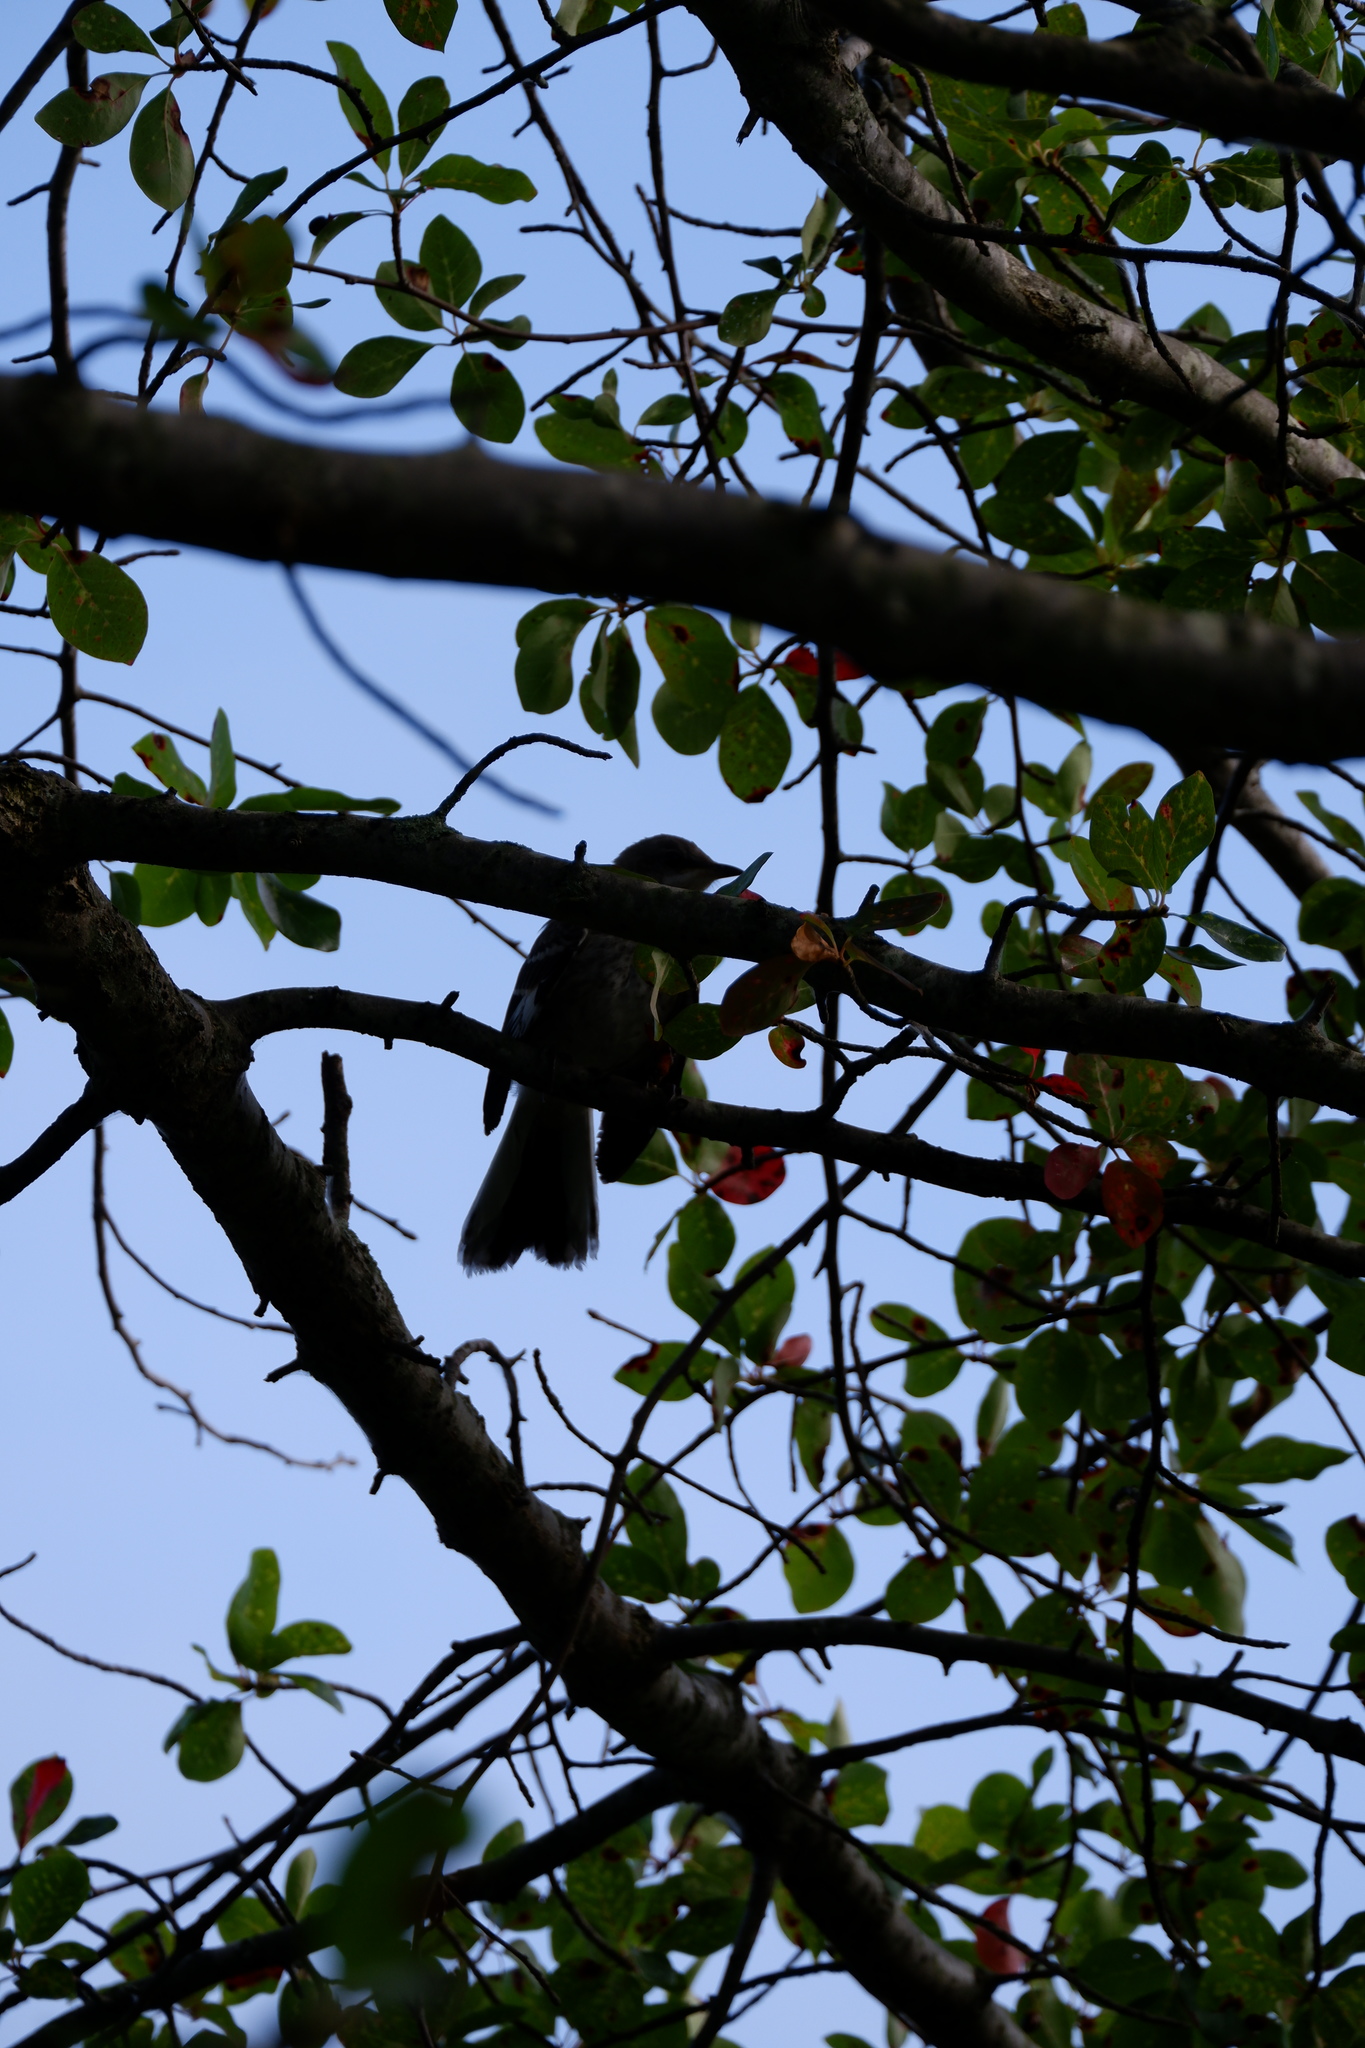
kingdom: Animalia
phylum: Chordata
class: Aves
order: Passeriformes
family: Mimidae
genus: Mimus
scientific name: Mimus polyglottos
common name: Northern mockingbird
